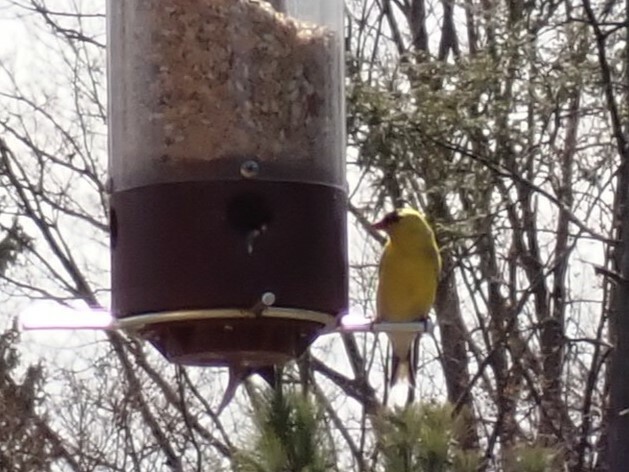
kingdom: Animalia
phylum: Chordata
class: Aves
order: Passeriformes
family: Fringillidae
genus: Spinus
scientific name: Spinus tristis
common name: American goldfinch
